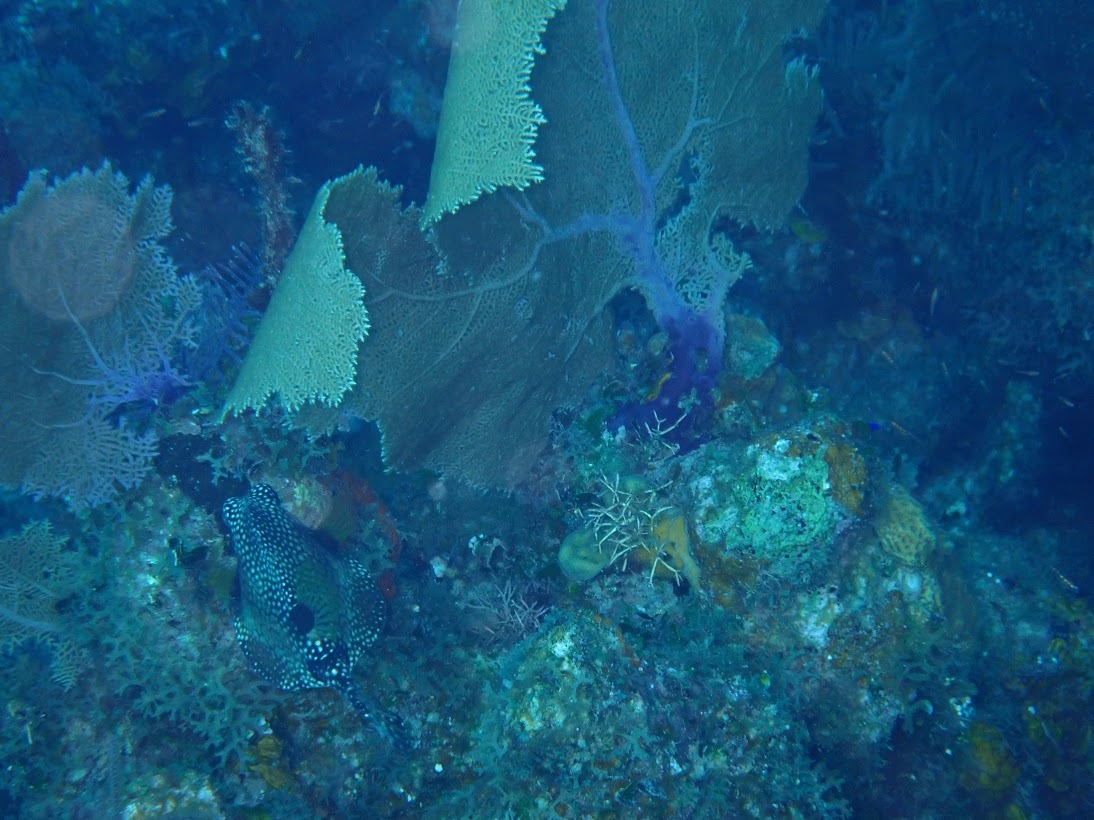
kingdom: Animalia
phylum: Chordata
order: Tetraodontiformes
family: Ostraciidae
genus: Lactophrys
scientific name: Lactophrys triqueter
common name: Smooth trunkfish
